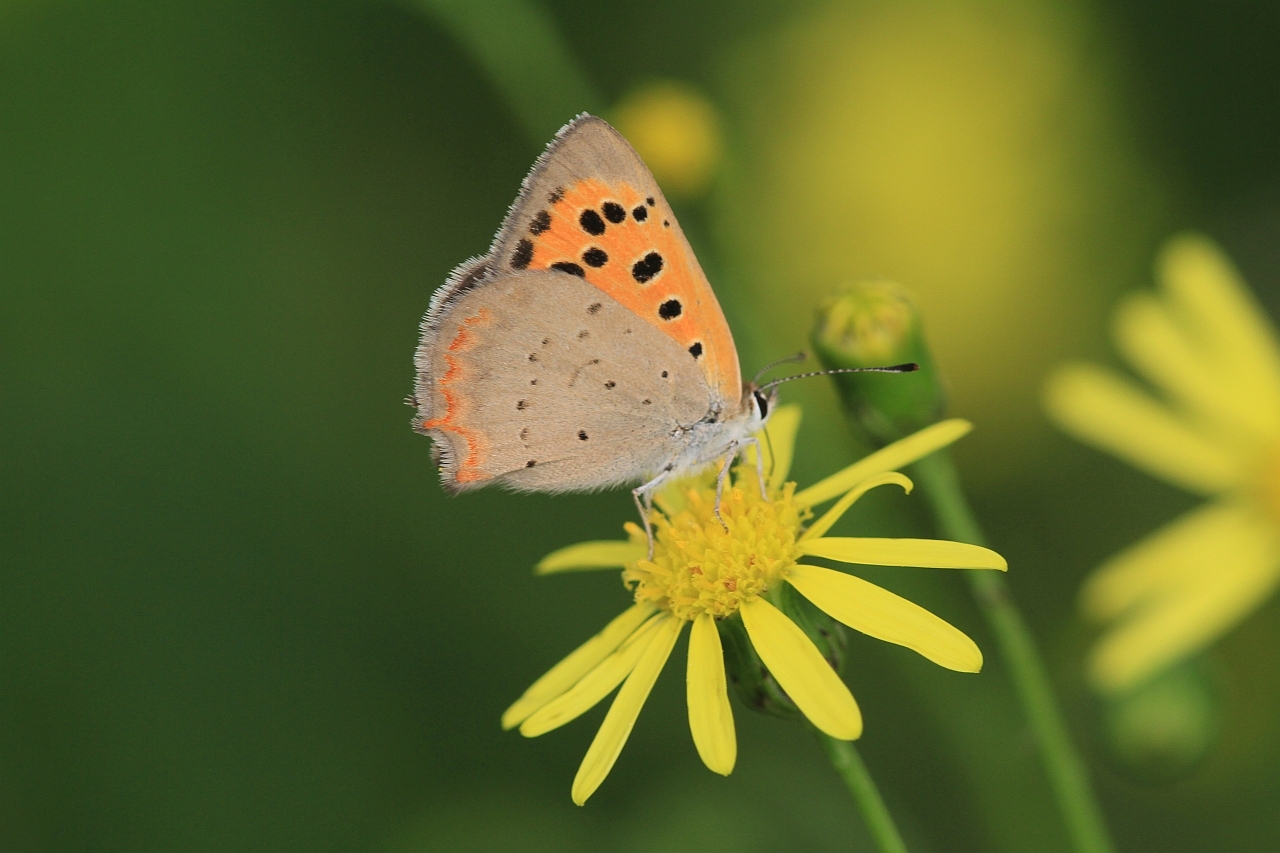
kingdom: Animalia
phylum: Arthropoda
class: Insecta
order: Lepidoptera
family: Lycaenidae
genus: Lycaena
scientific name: Lycaena phlaeas
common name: Small copper
